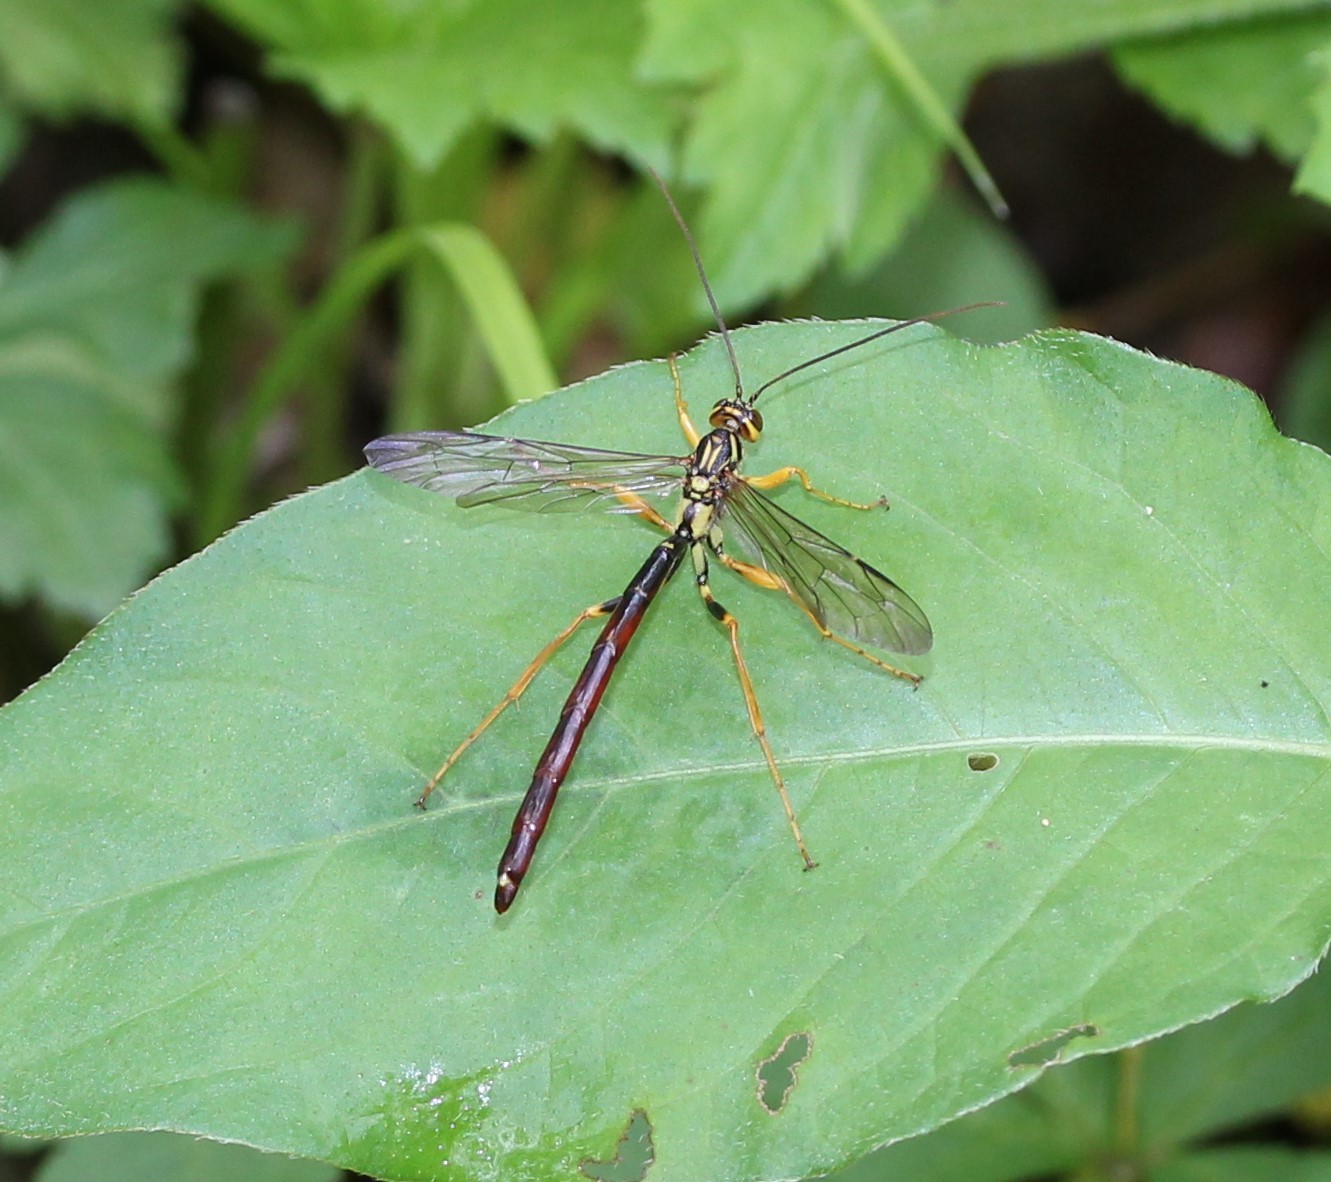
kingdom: Animalia
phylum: Arthropoda
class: Insecta
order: Hymenoptera
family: Ichneumonidae
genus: Megarhyssa
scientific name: Megarhyssa atrata
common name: Black giant ichneumonid wasp
